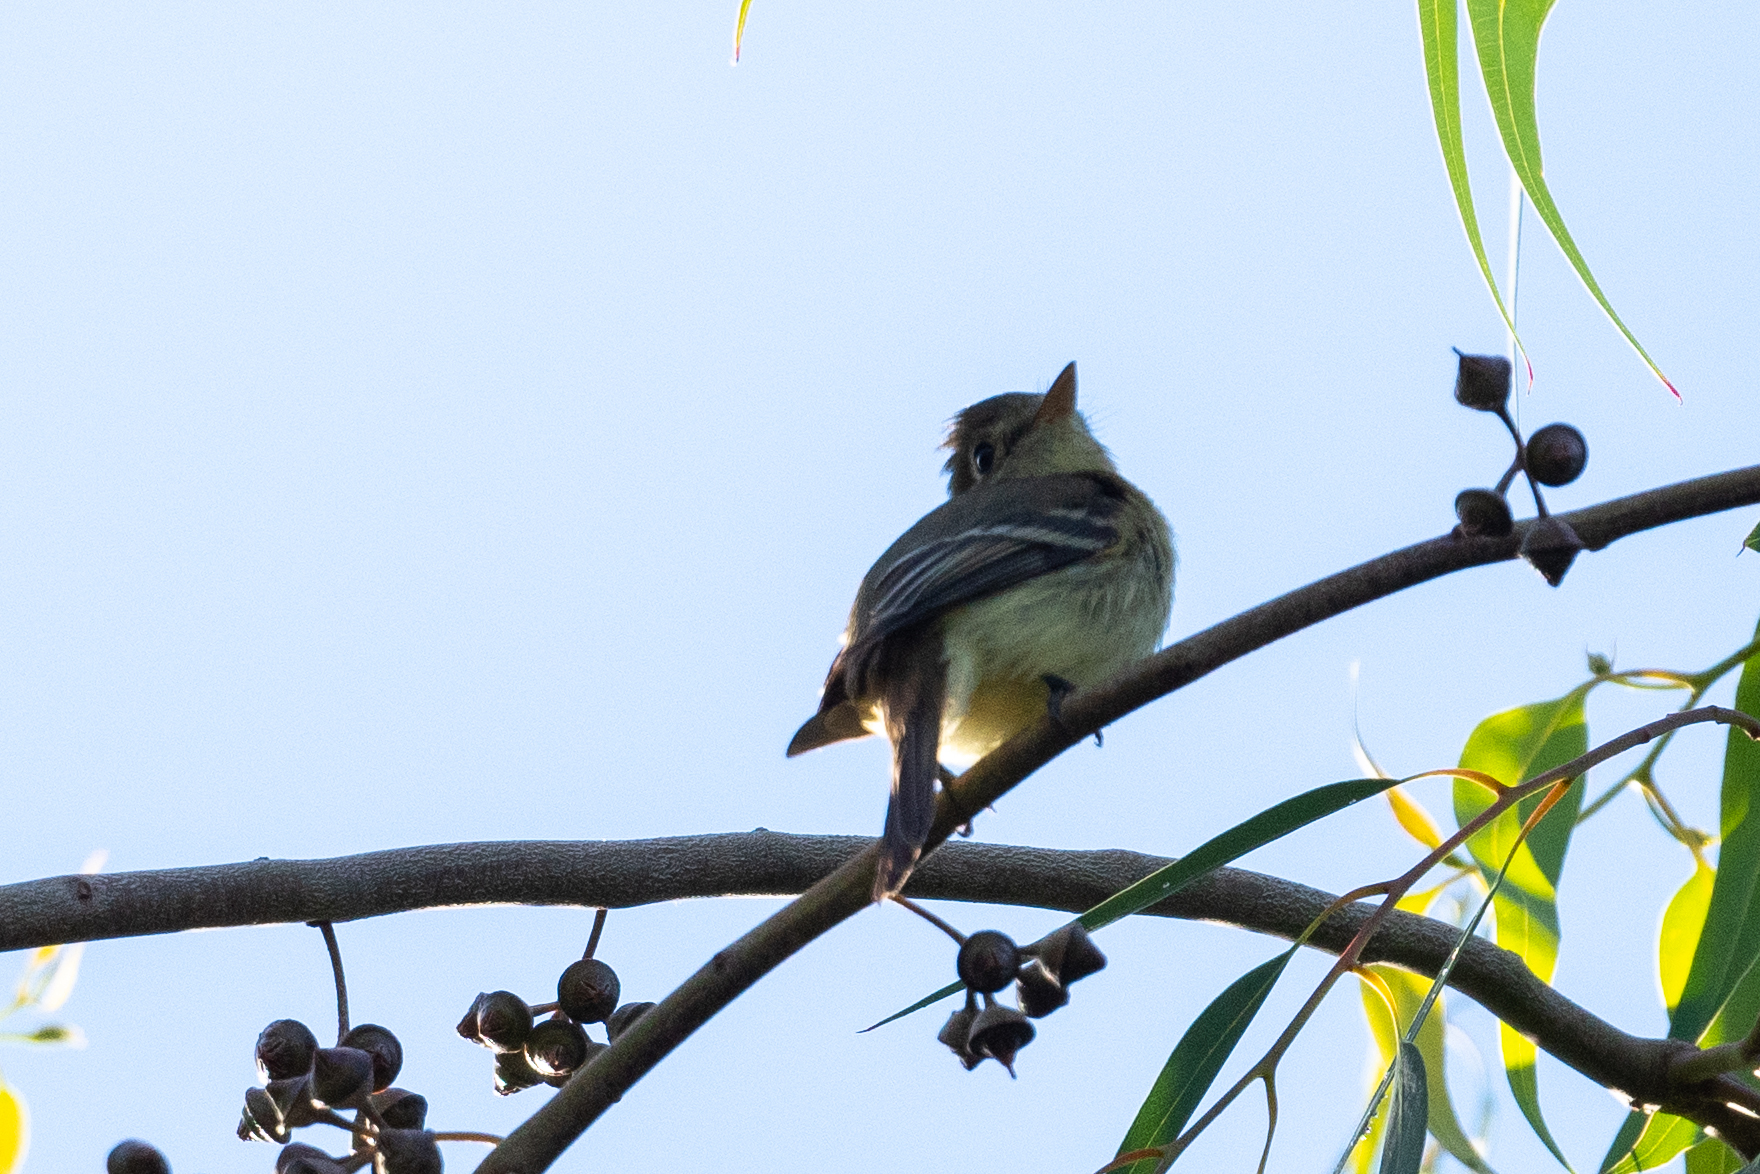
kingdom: Animalia
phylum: Chordata
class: Aves
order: Passeriformes
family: Tyrannidae
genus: Empidonax
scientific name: Empidonax difficilis
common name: Pacific-slope flycatcher
